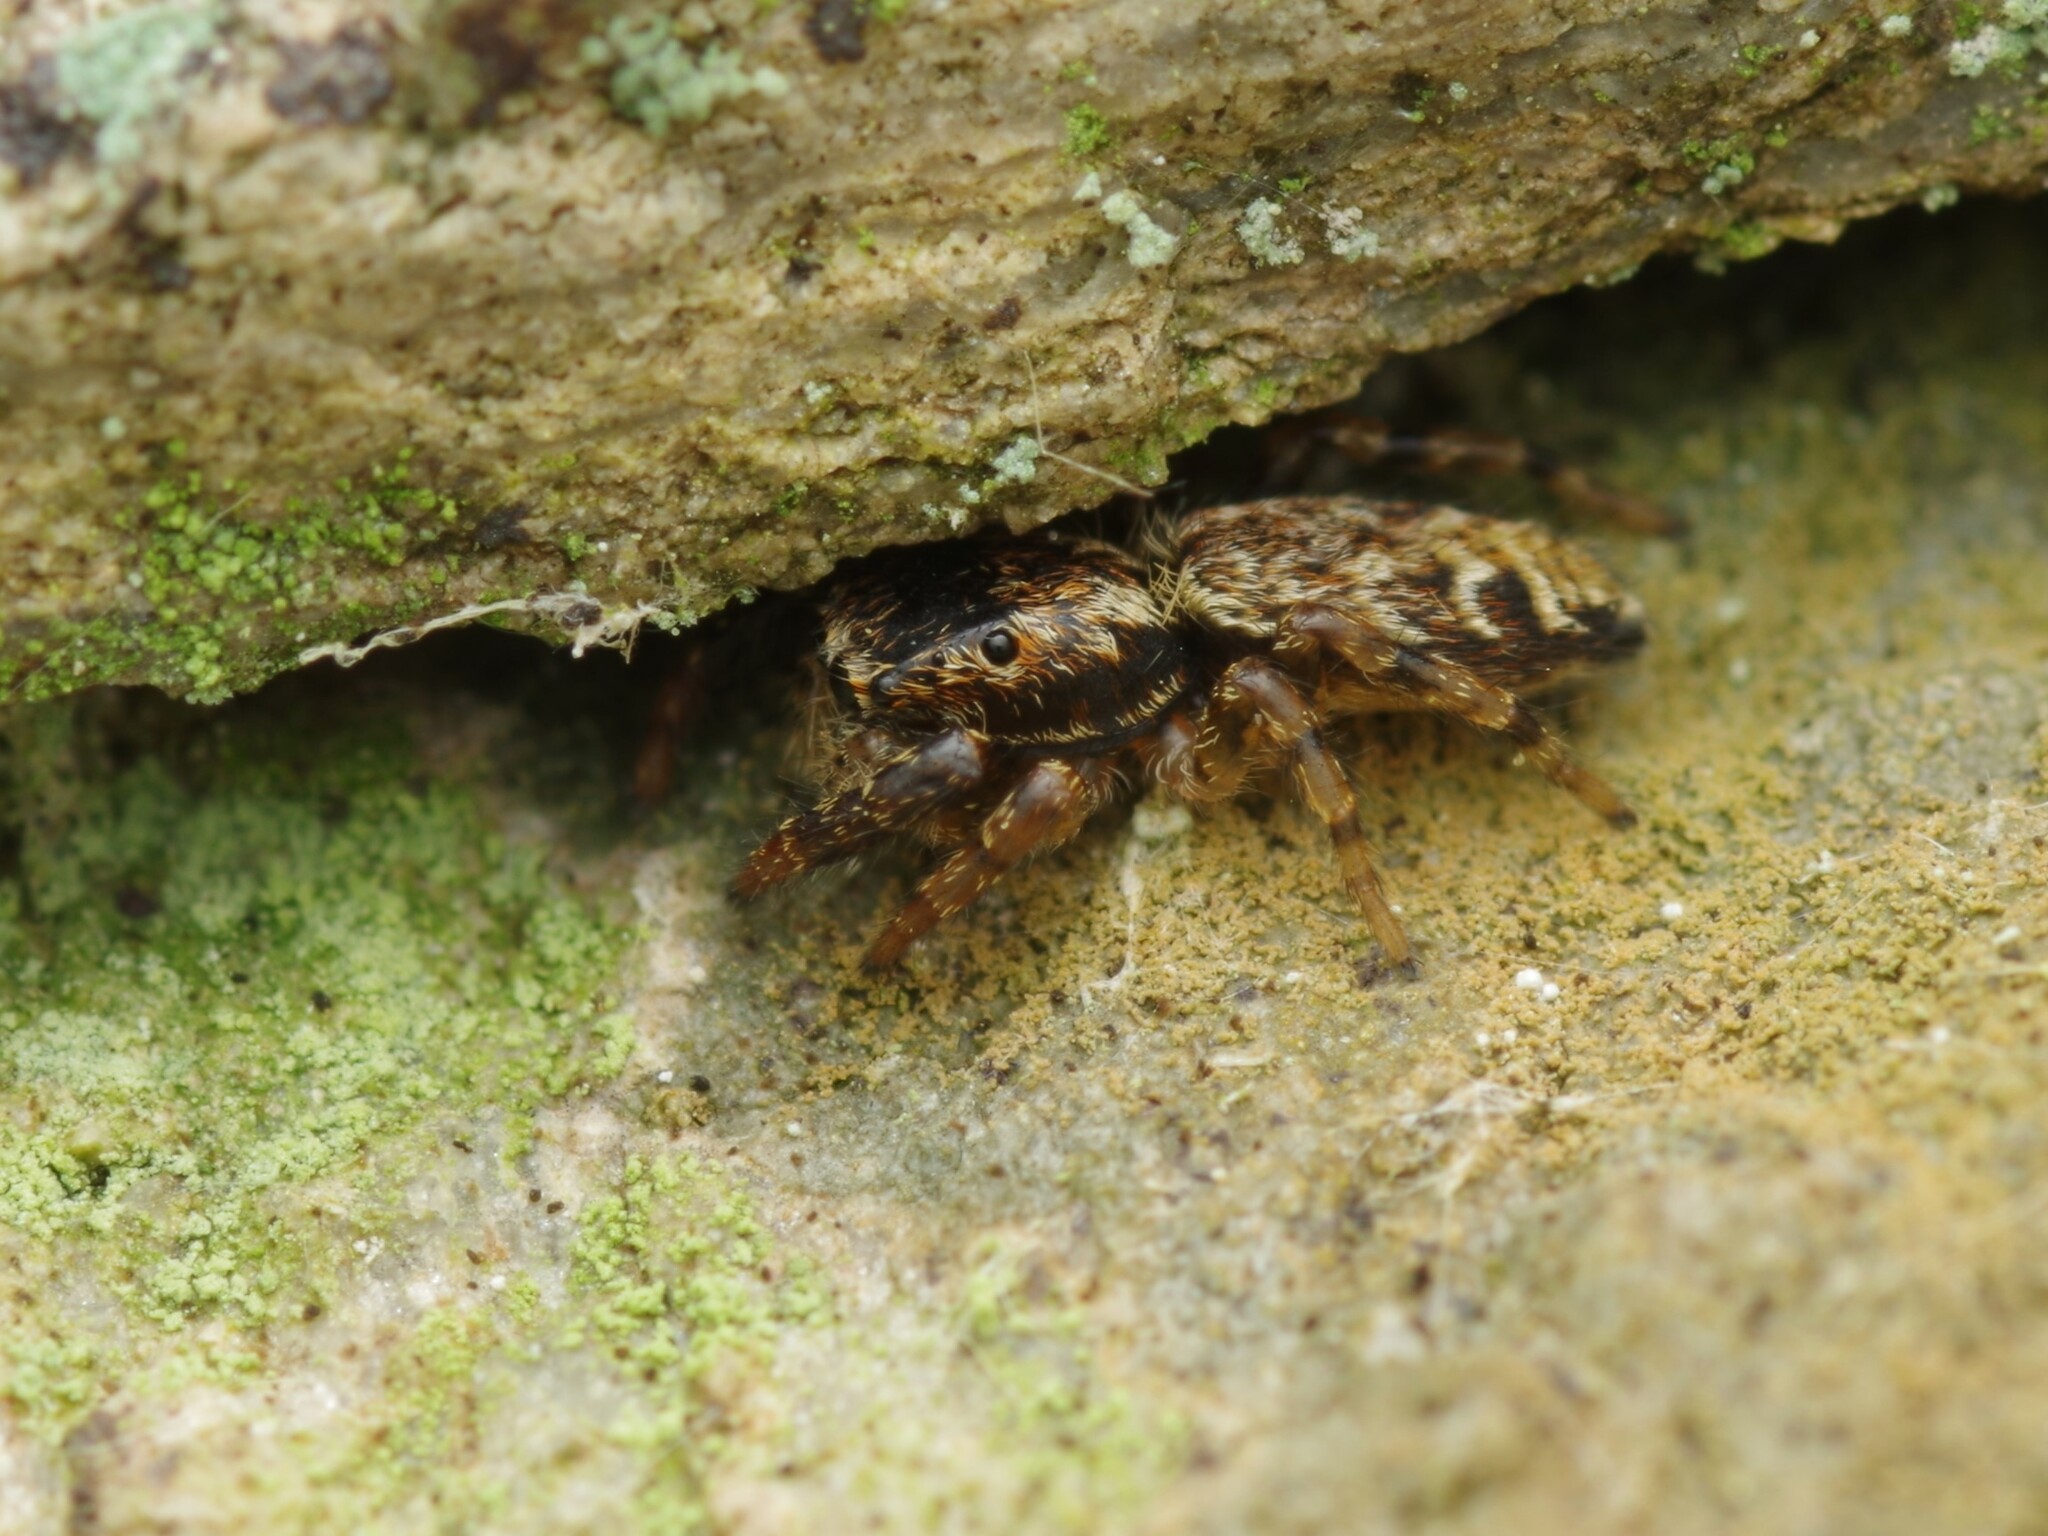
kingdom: Animalia
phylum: Arthropoda
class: Arachnida
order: Araneae
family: Salticidae
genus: Marpissa
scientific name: Marpissa muscosa
